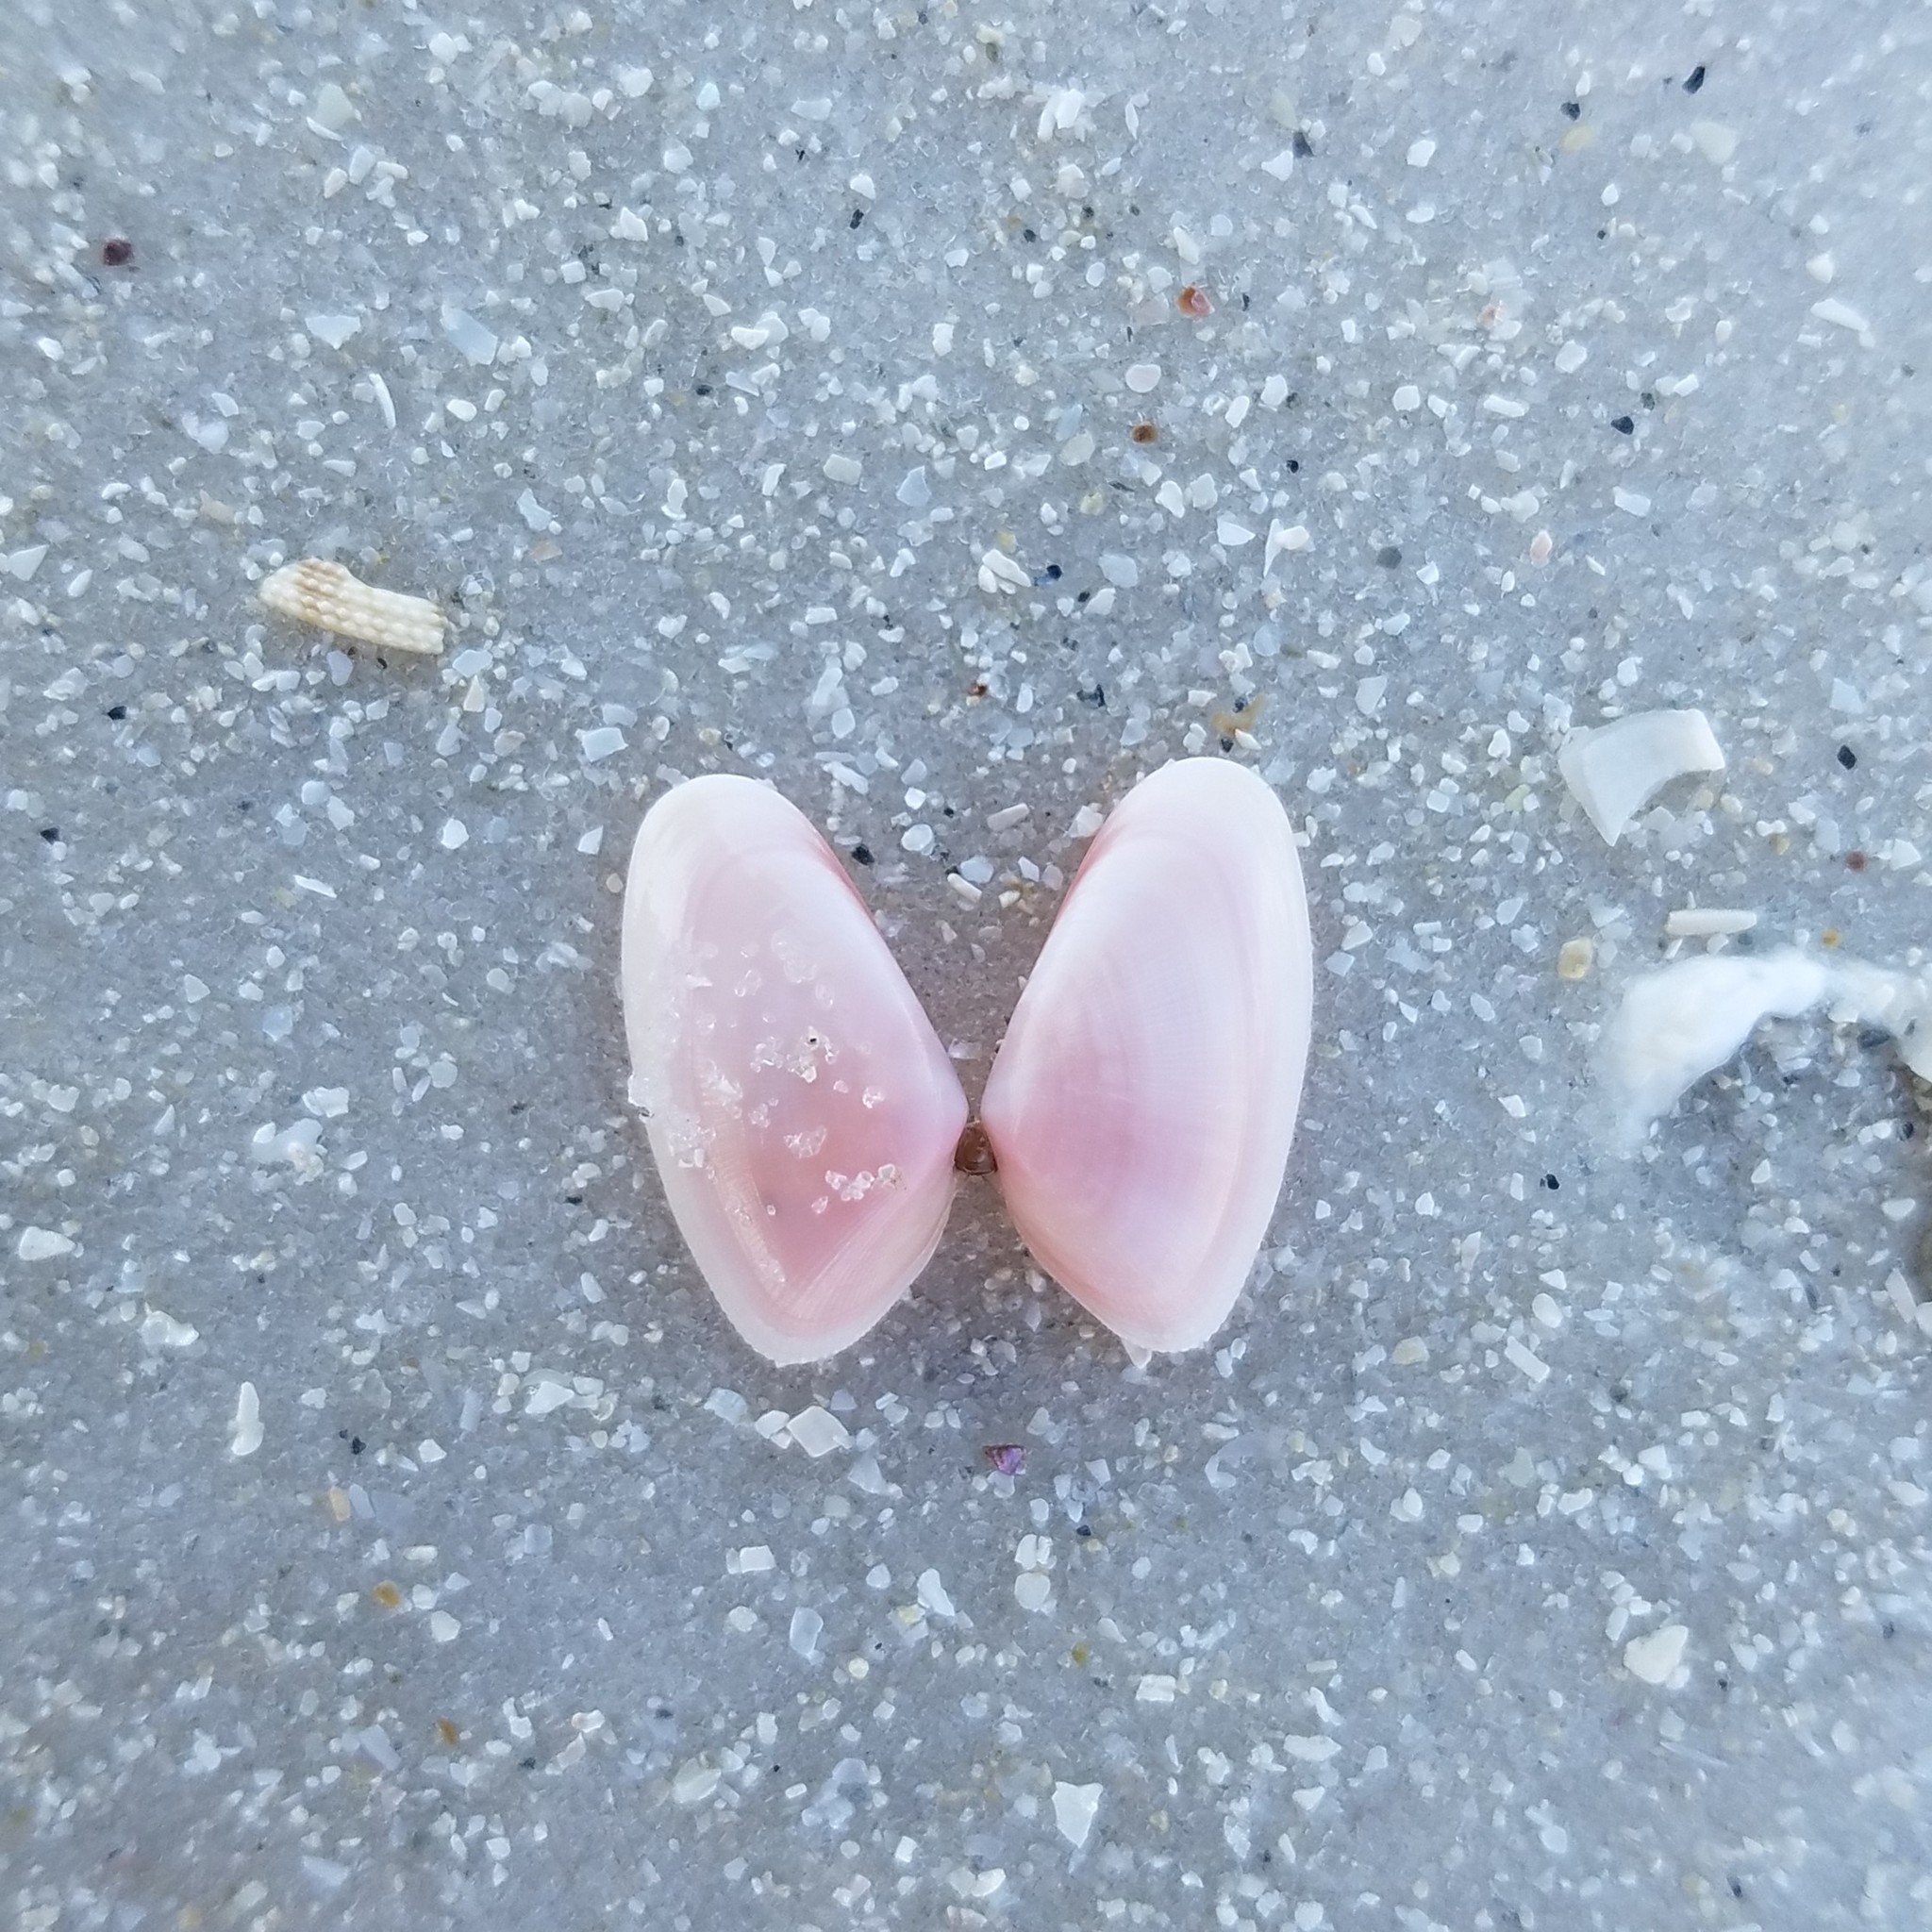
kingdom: Animalia
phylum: Mollusca
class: Bivalvia
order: Cardiida
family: Donacidae
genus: Donax
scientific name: Donax variabilis
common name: Butterfly shell
